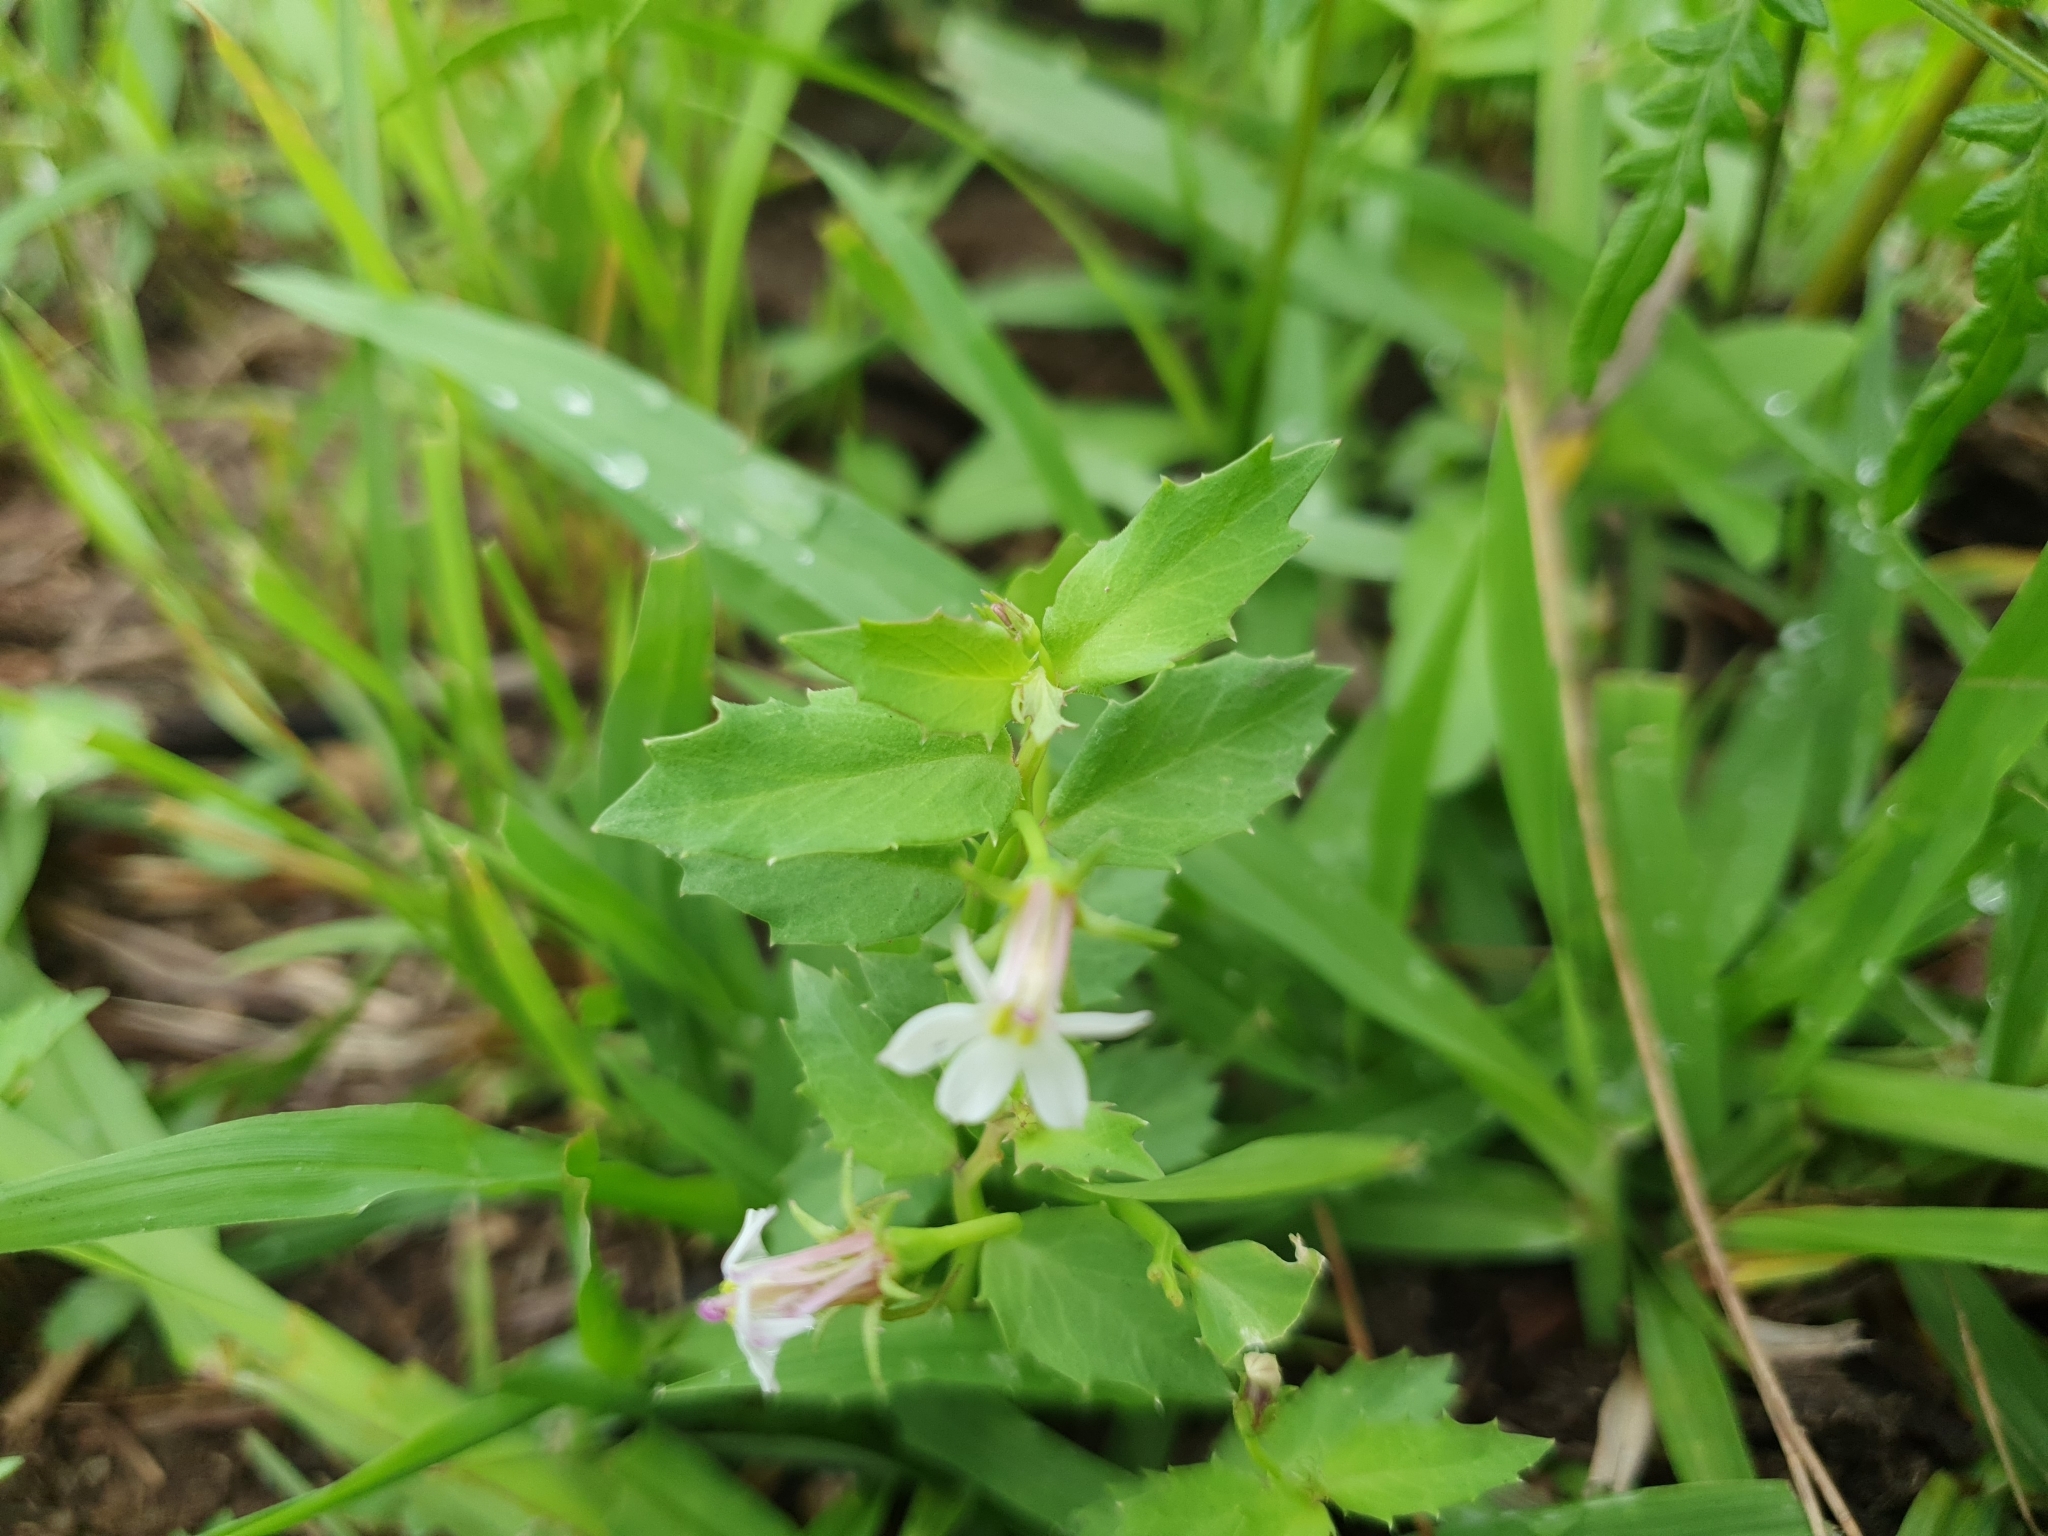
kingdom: Plantae
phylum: Tracheophyta
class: Magnoliopsida
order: Asterales
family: Campanulaceae
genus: Lobelia
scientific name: Lobelia purpurascens
